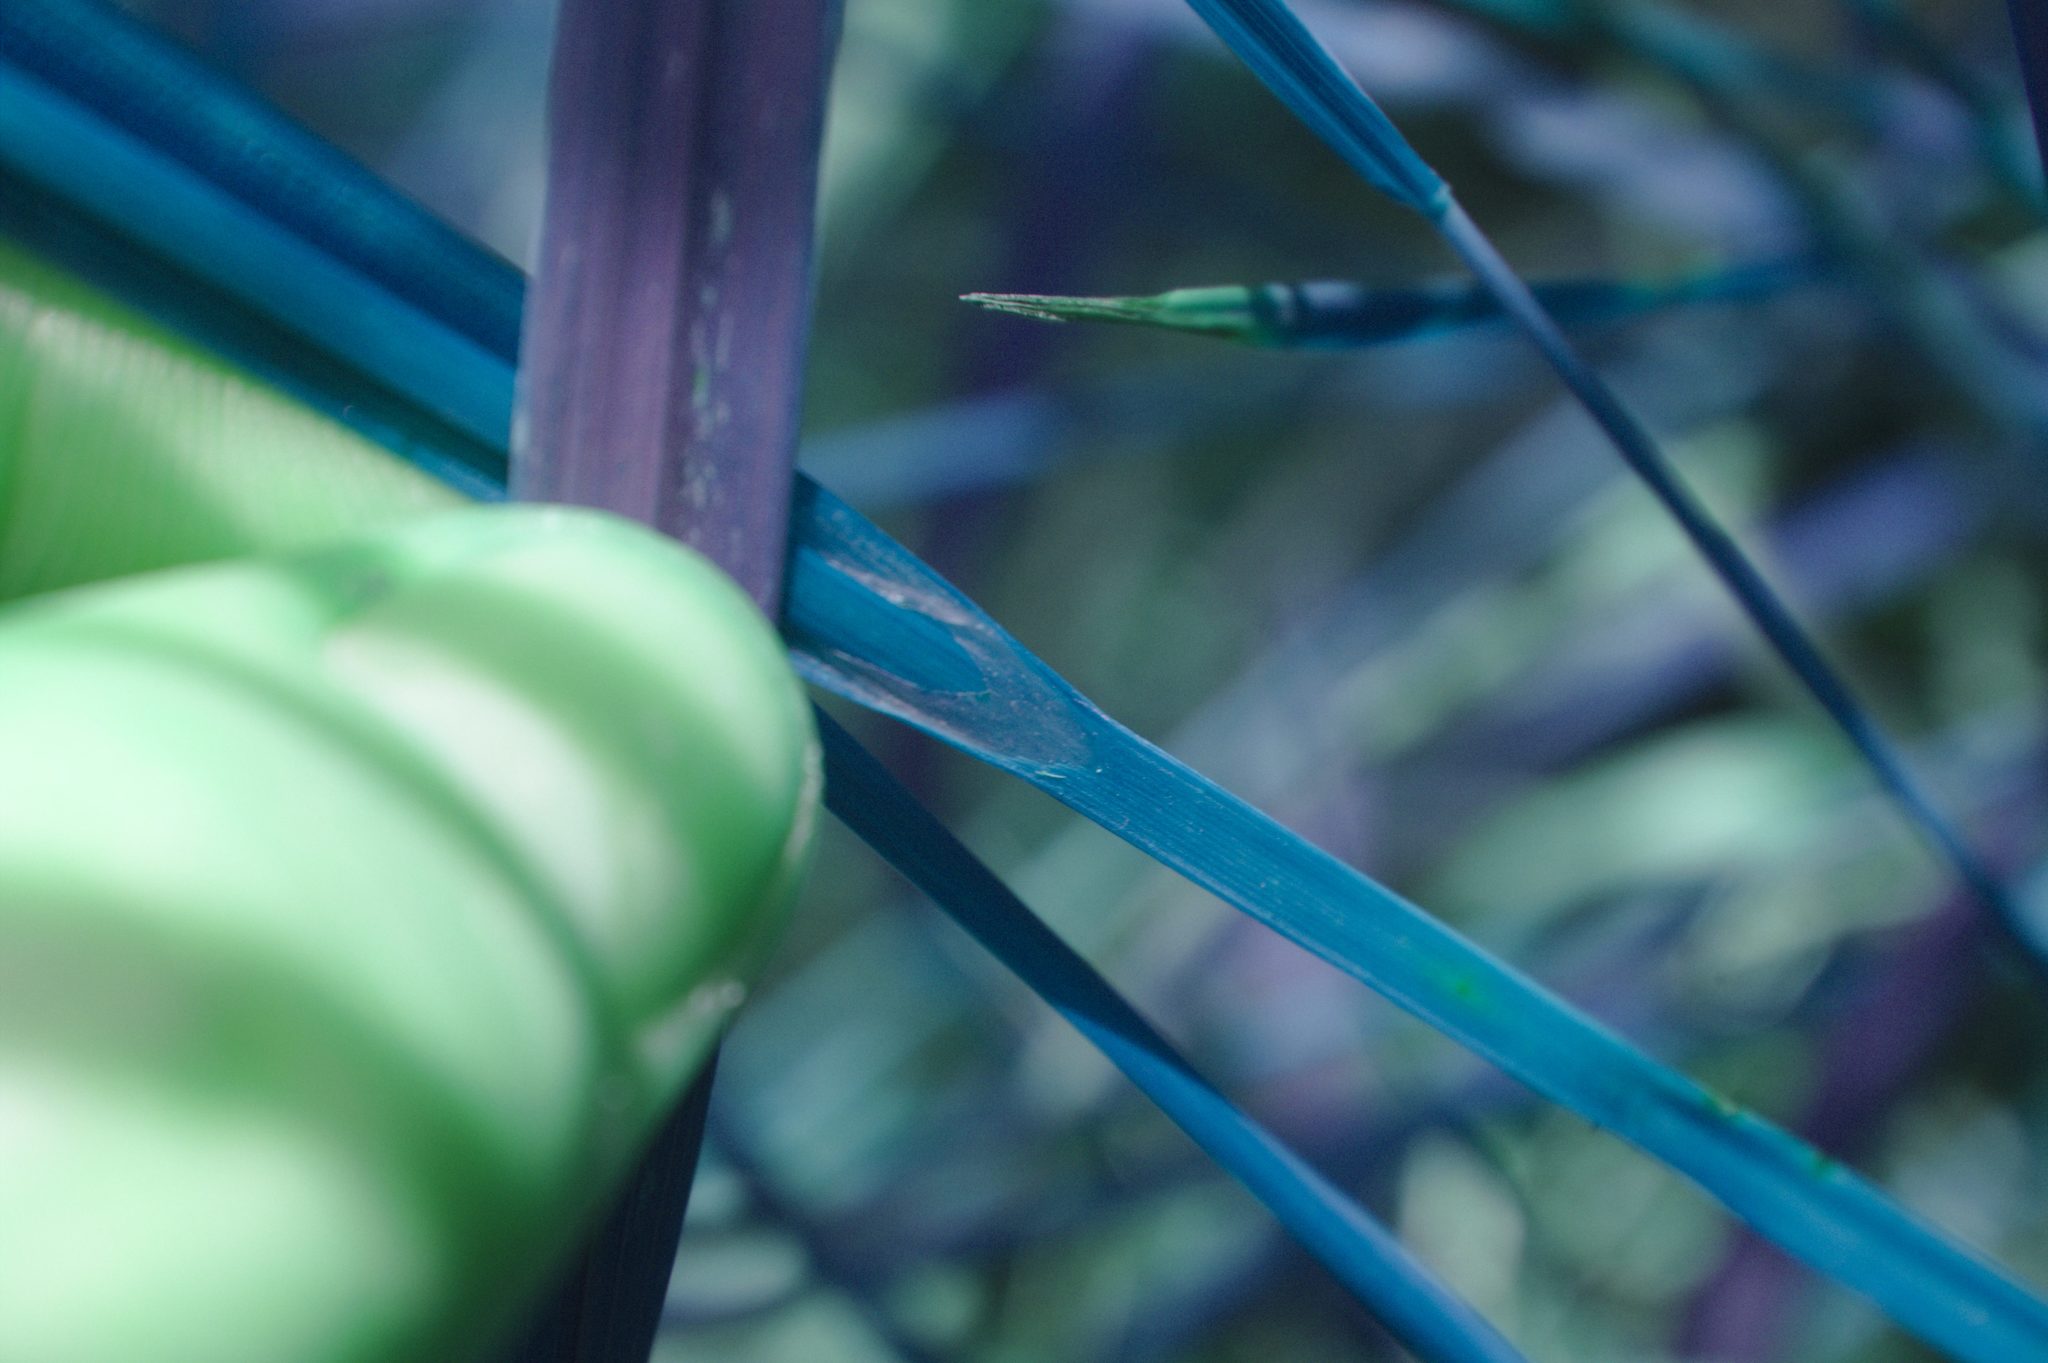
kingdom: Plantae
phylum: Tracheophyta
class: Liliopsida
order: Poales
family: Cyperaceae
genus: Carex
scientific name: Carex pseudocyperus
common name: Cyperus sedge
